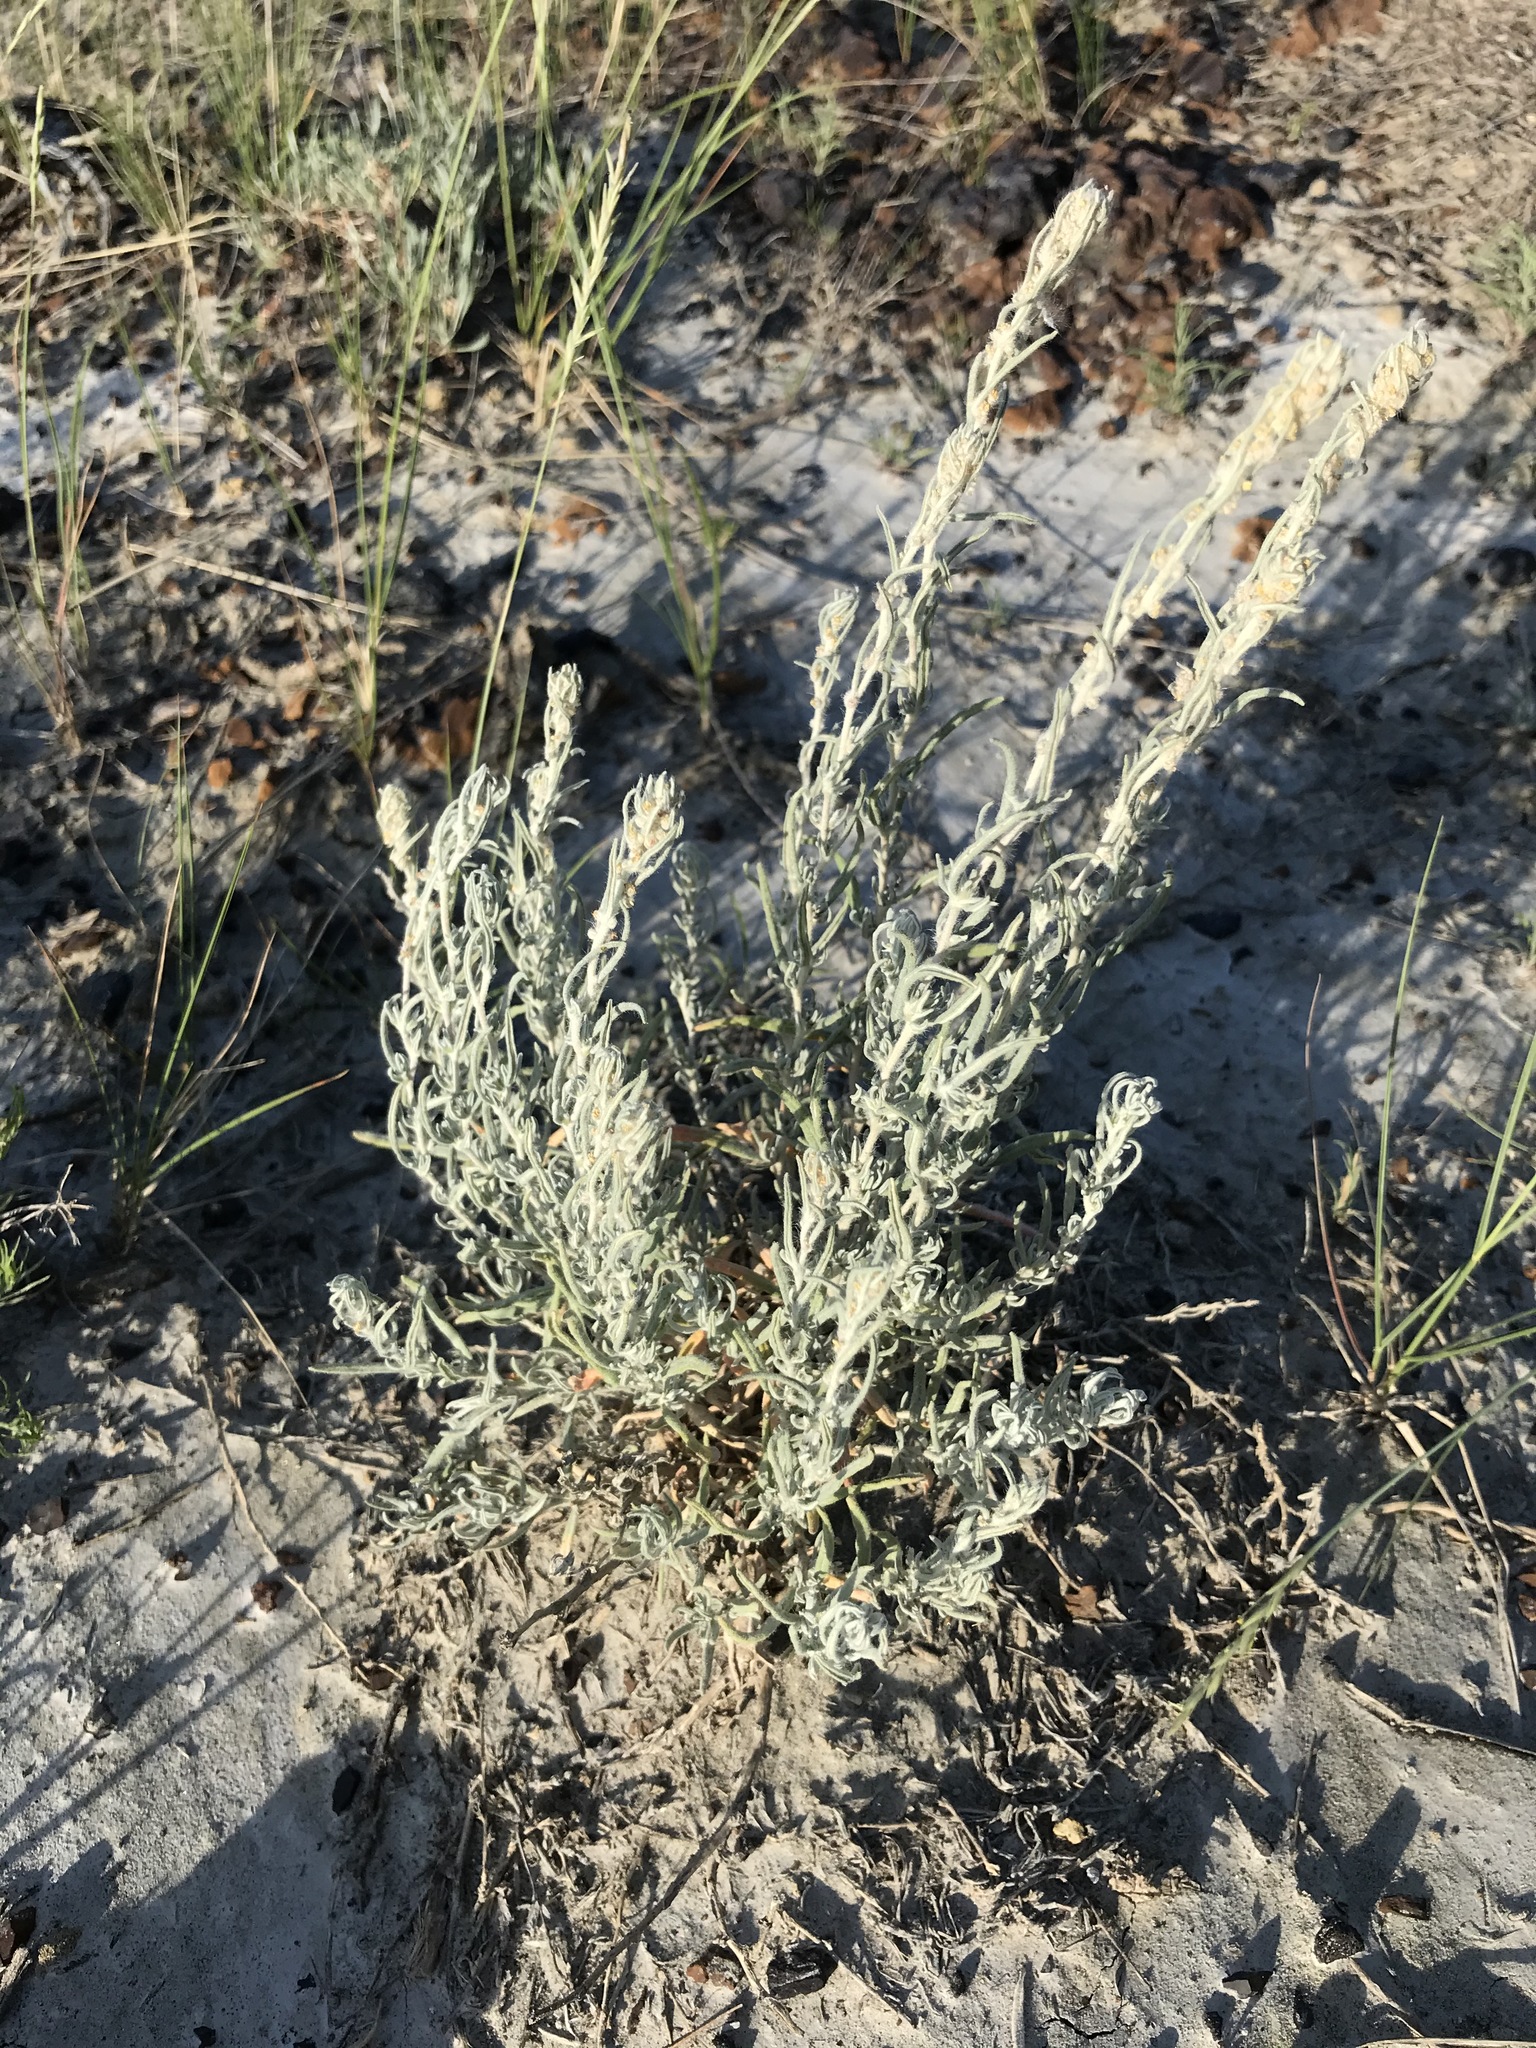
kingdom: Plantae
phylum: Tracheophyta
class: Magnoliopsida
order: Caryophyllales
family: Amaranthaceae
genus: Krascheninnikovia
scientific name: Krascheninnikovia lanata
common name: Winterfat
